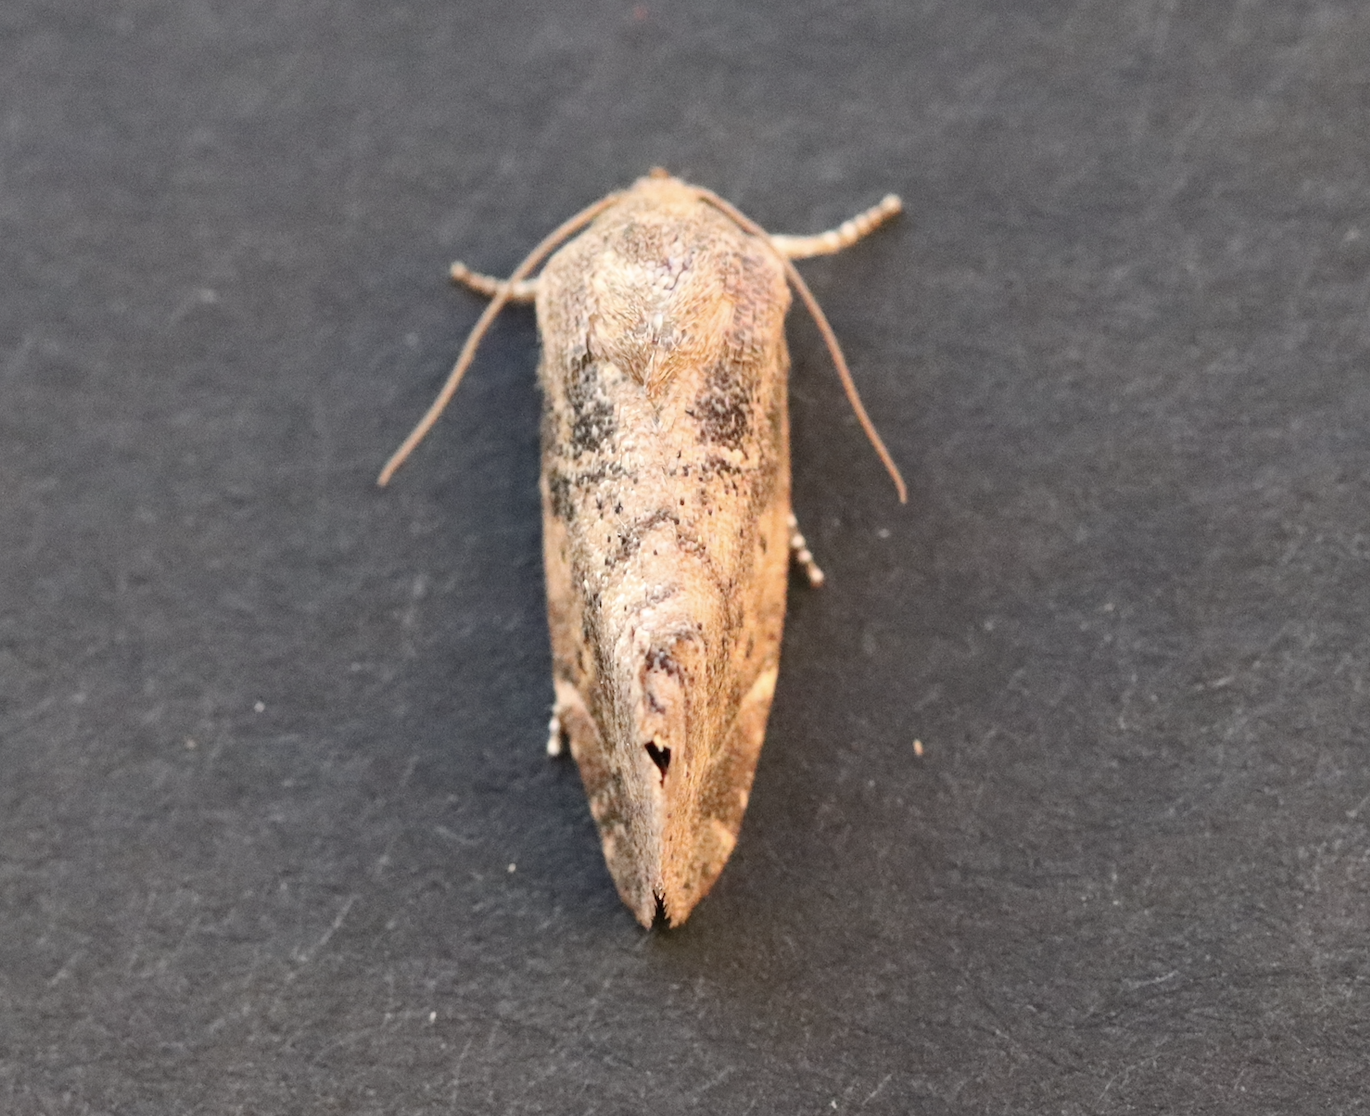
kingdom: Animalia
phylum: Arthropoda
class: Insecta
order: Lepidoptera
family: Noctuidae
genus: Cosmia
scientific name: Cosmia affinis
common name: Lesser-spotted pinion
